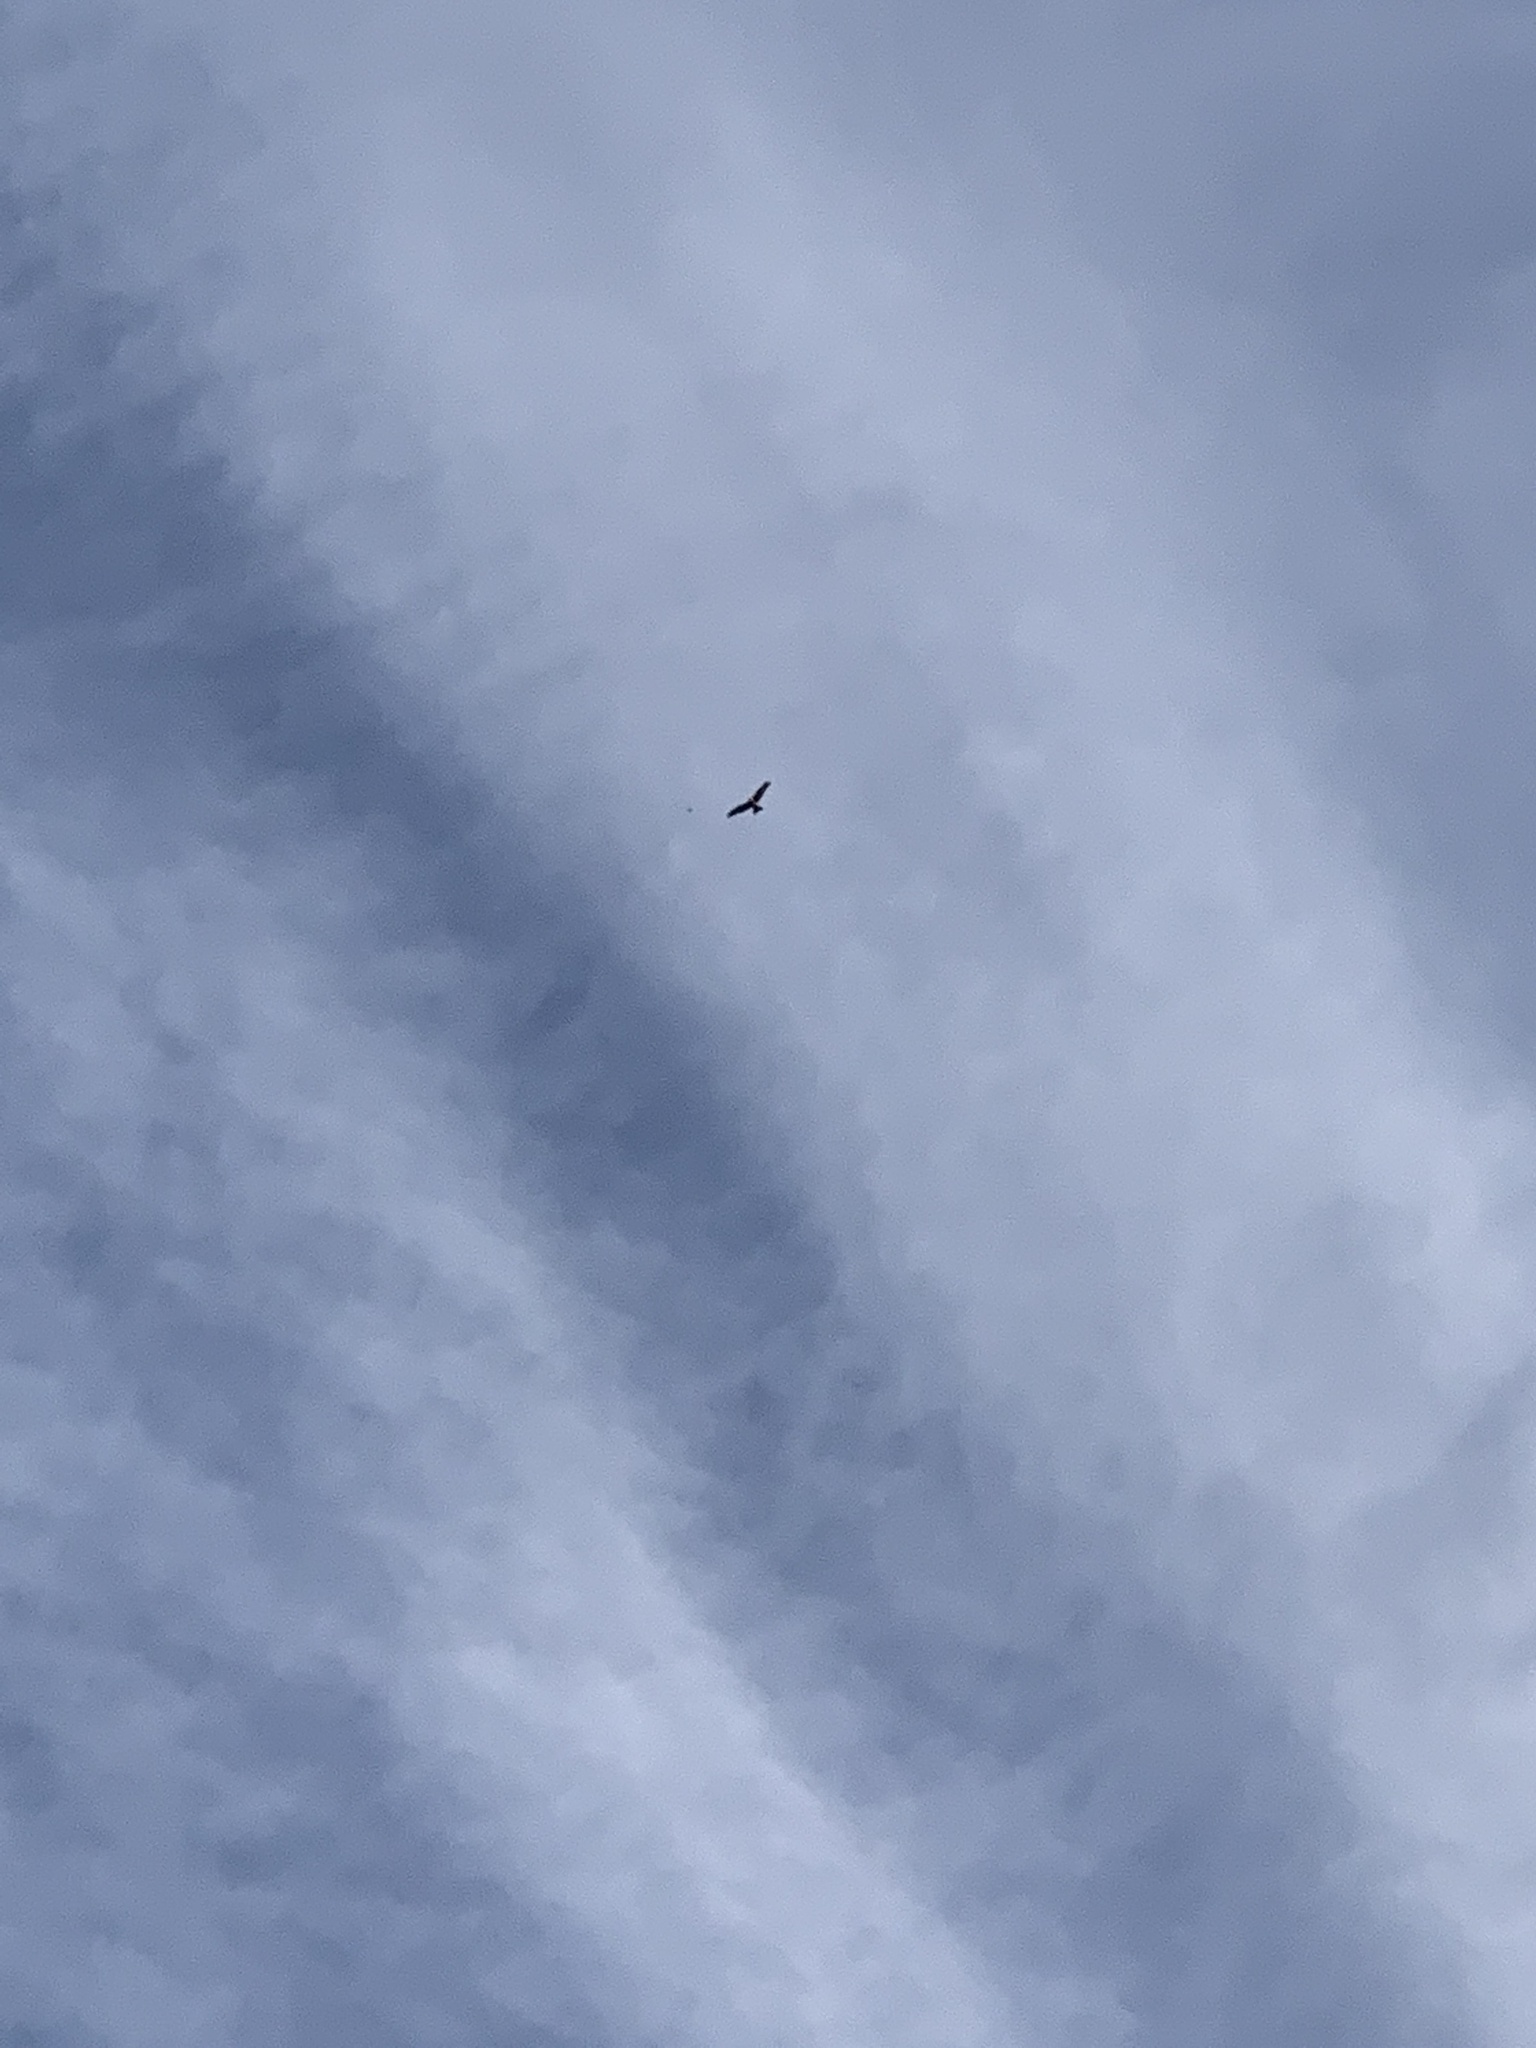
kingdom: Animalia
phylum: Chordata
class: Aves
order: Accipitriformes
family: Accipitridae
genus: Milvus
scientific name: Milvus milvus
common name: Red kite
